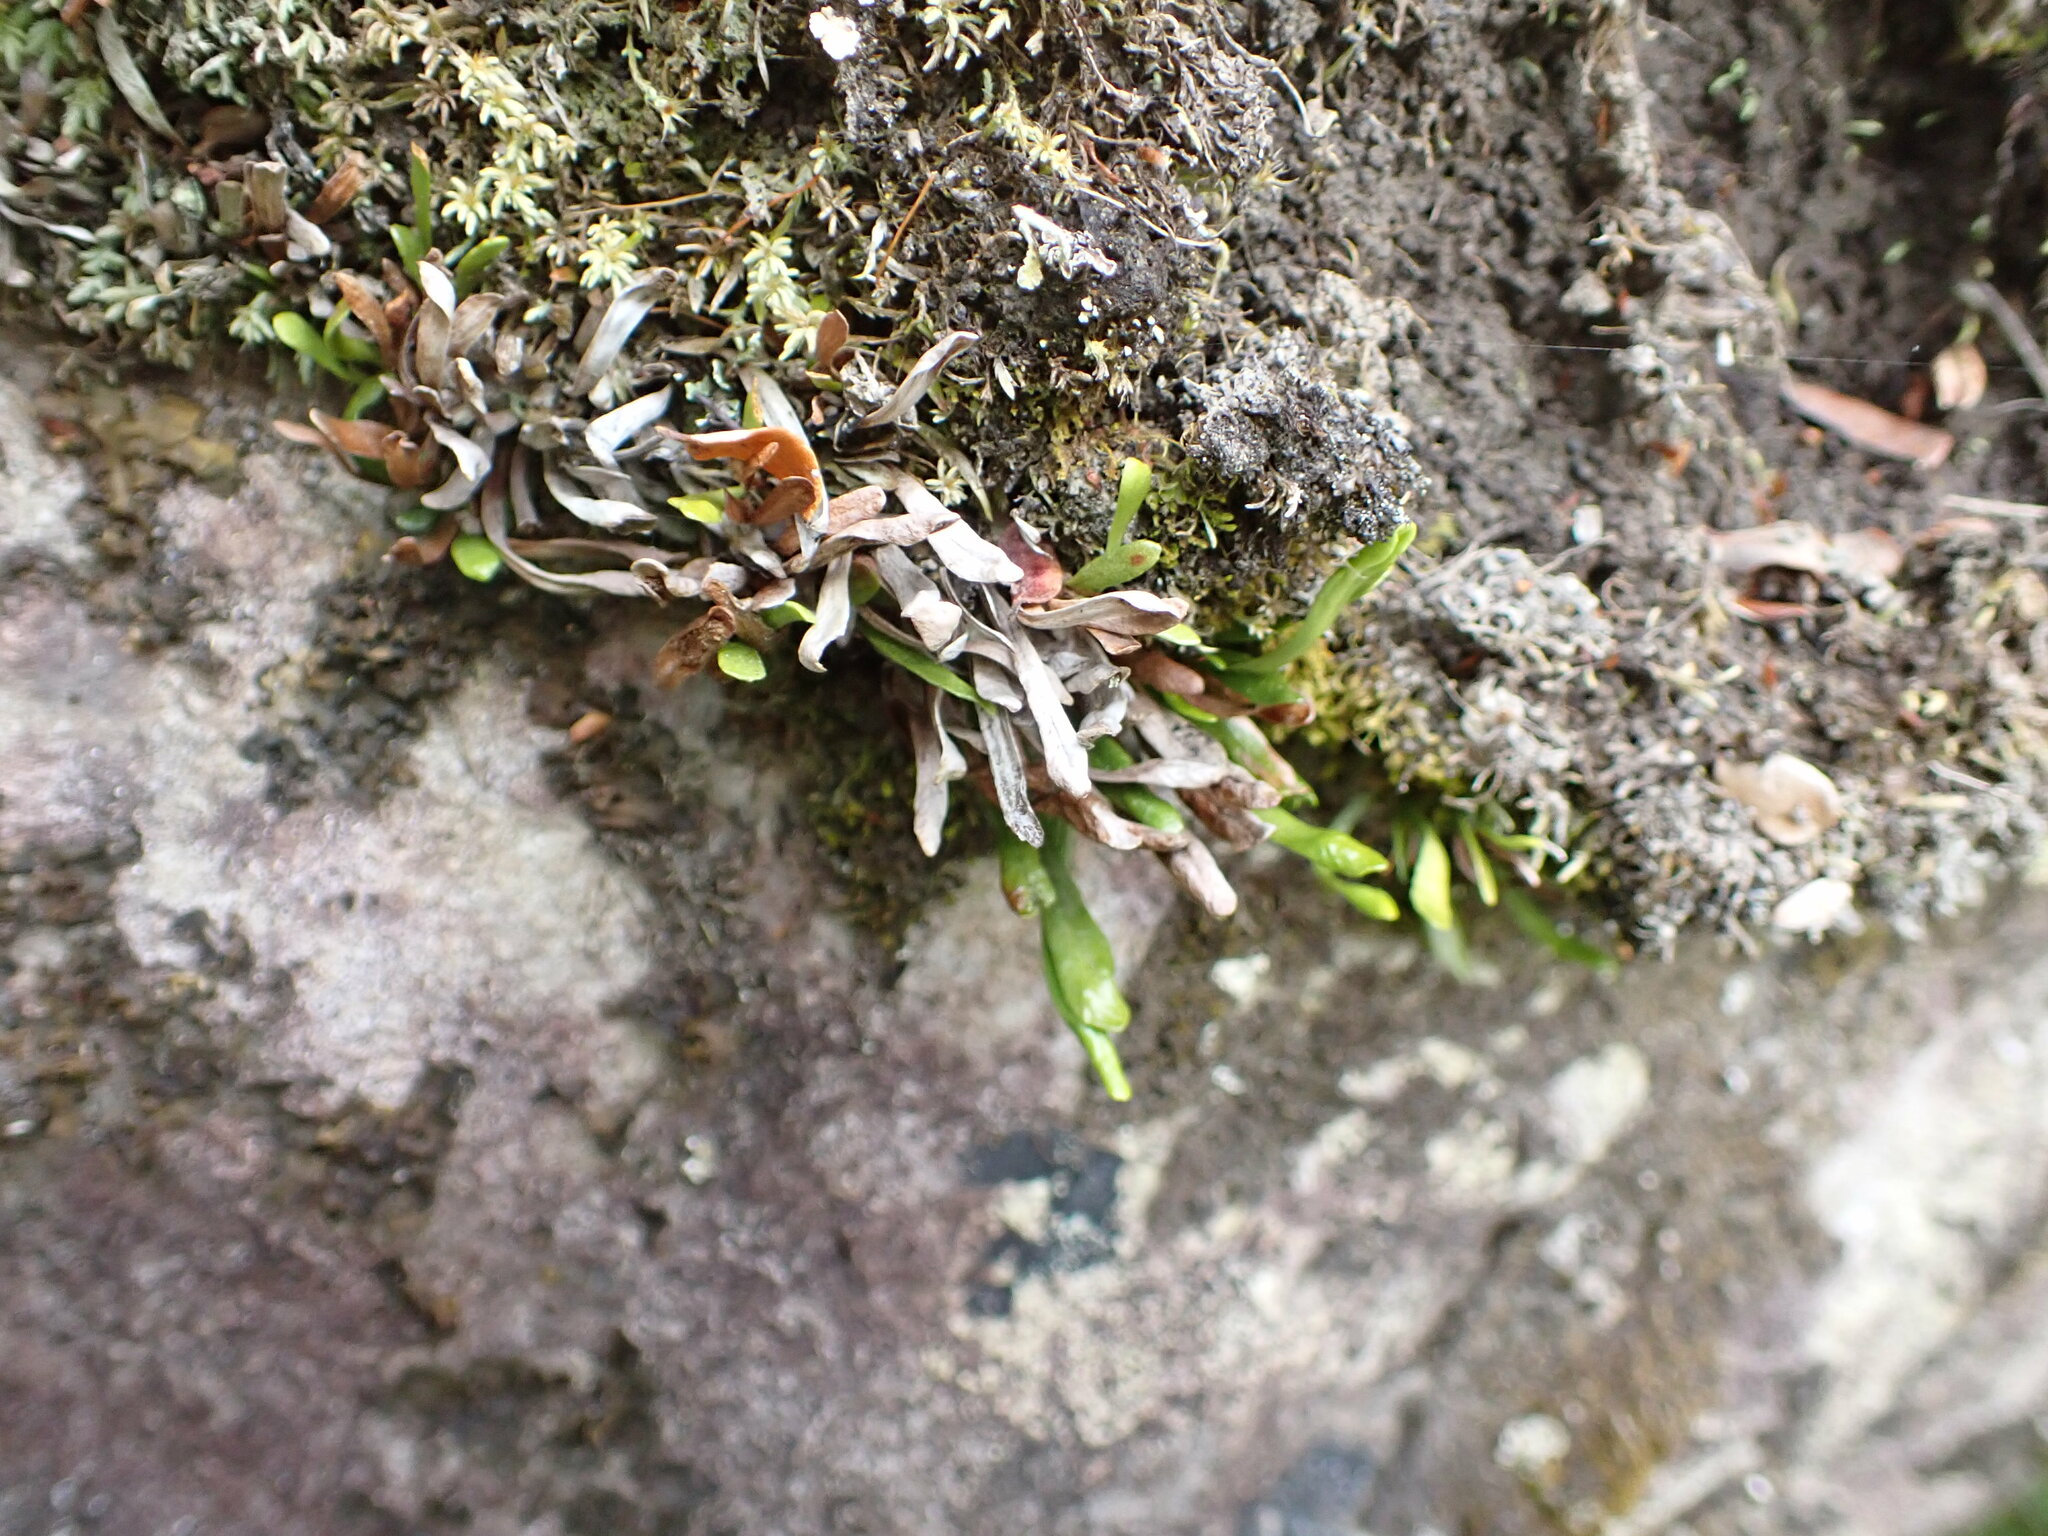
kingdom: Plantae
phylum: Tracheophyta
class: Polypodiopsida
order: Polypodiales
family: Polypodiaceae
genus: Notogrammitis
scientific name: Notogrammitis crassior
